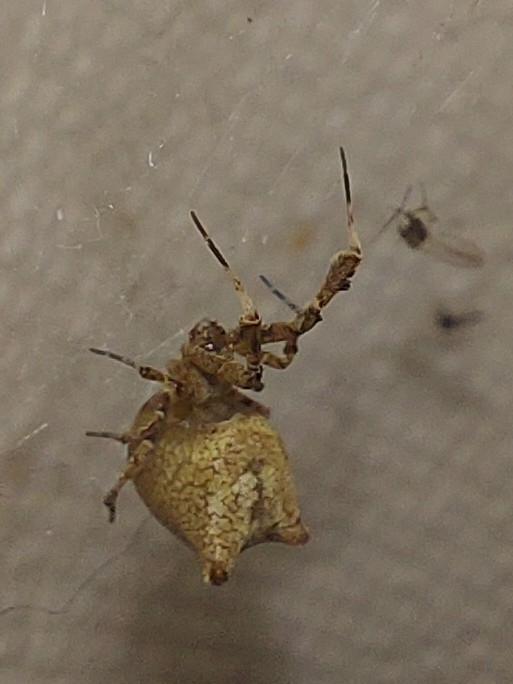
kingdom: Animalia
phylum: Arthropoda
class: Arachnida
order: Araneae
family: Uloboridae
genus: Uloborus
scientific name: Uloborus plumipes
